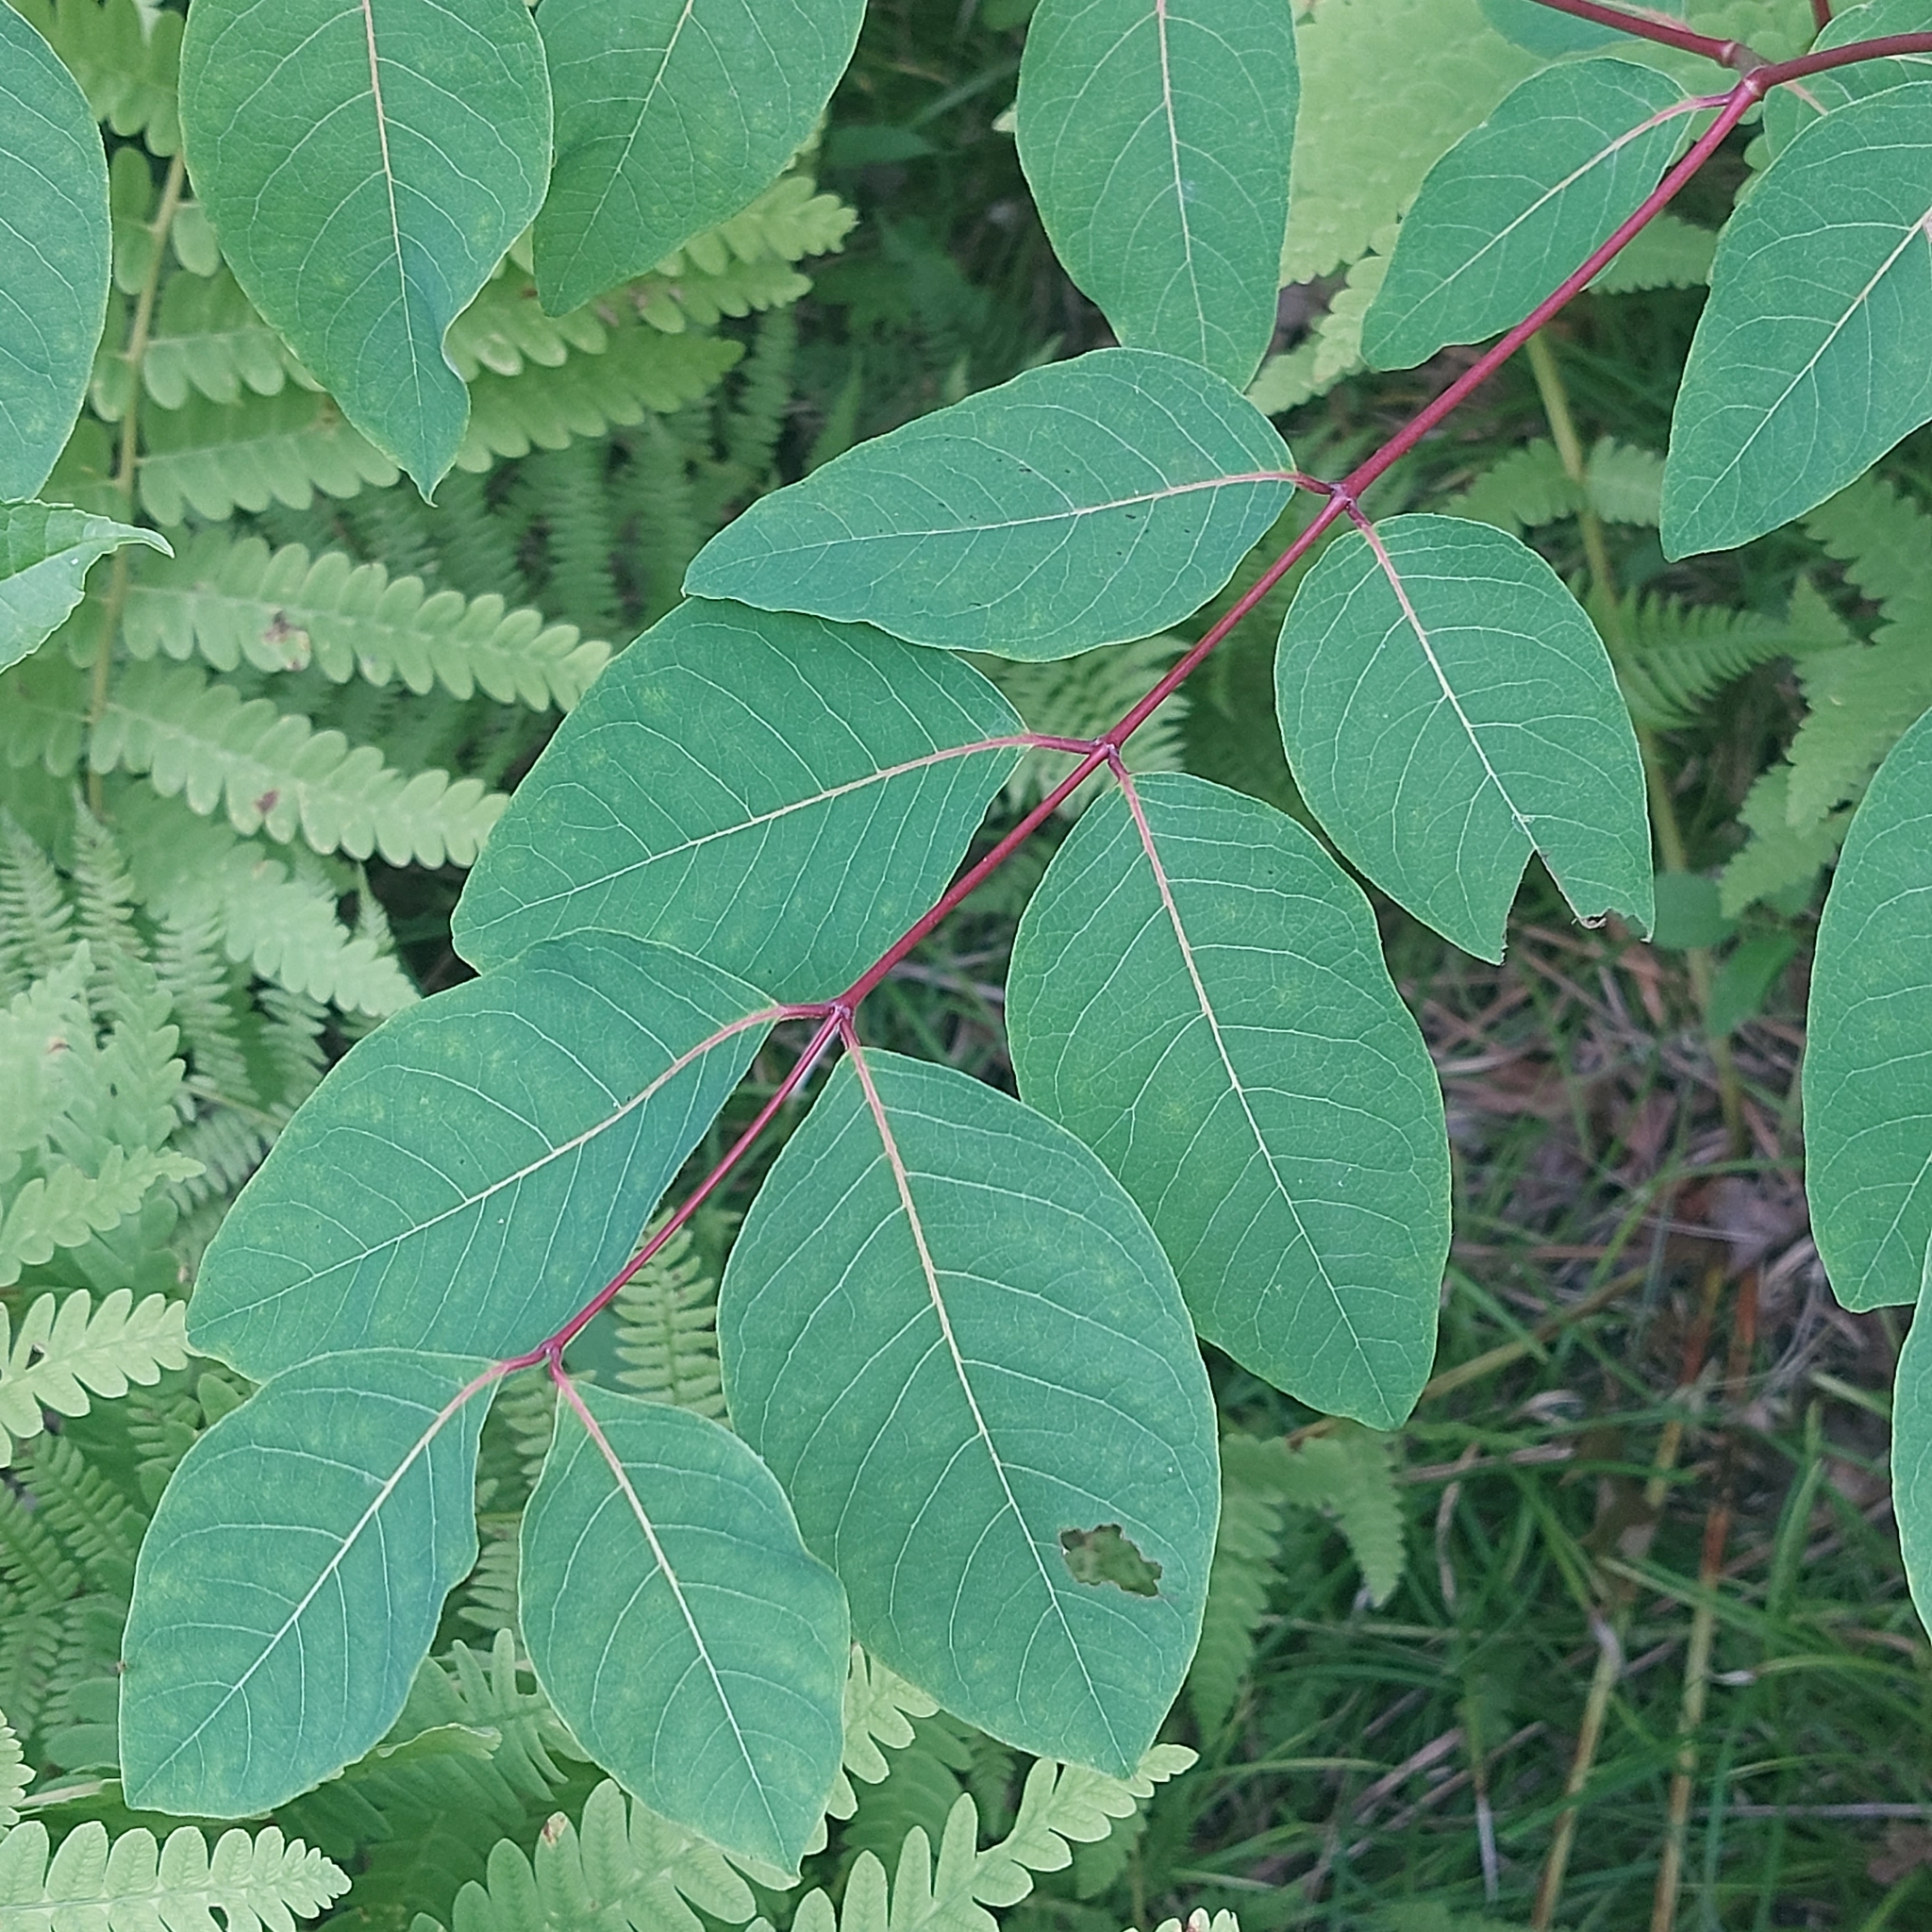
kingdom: Plantae
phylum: Tracheophyta
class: Magnoliopsida
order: Gentianales
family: Apocynaceae
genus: Apocynum
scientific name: Apocynum androsaemifolium
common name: Spreading dogbane
